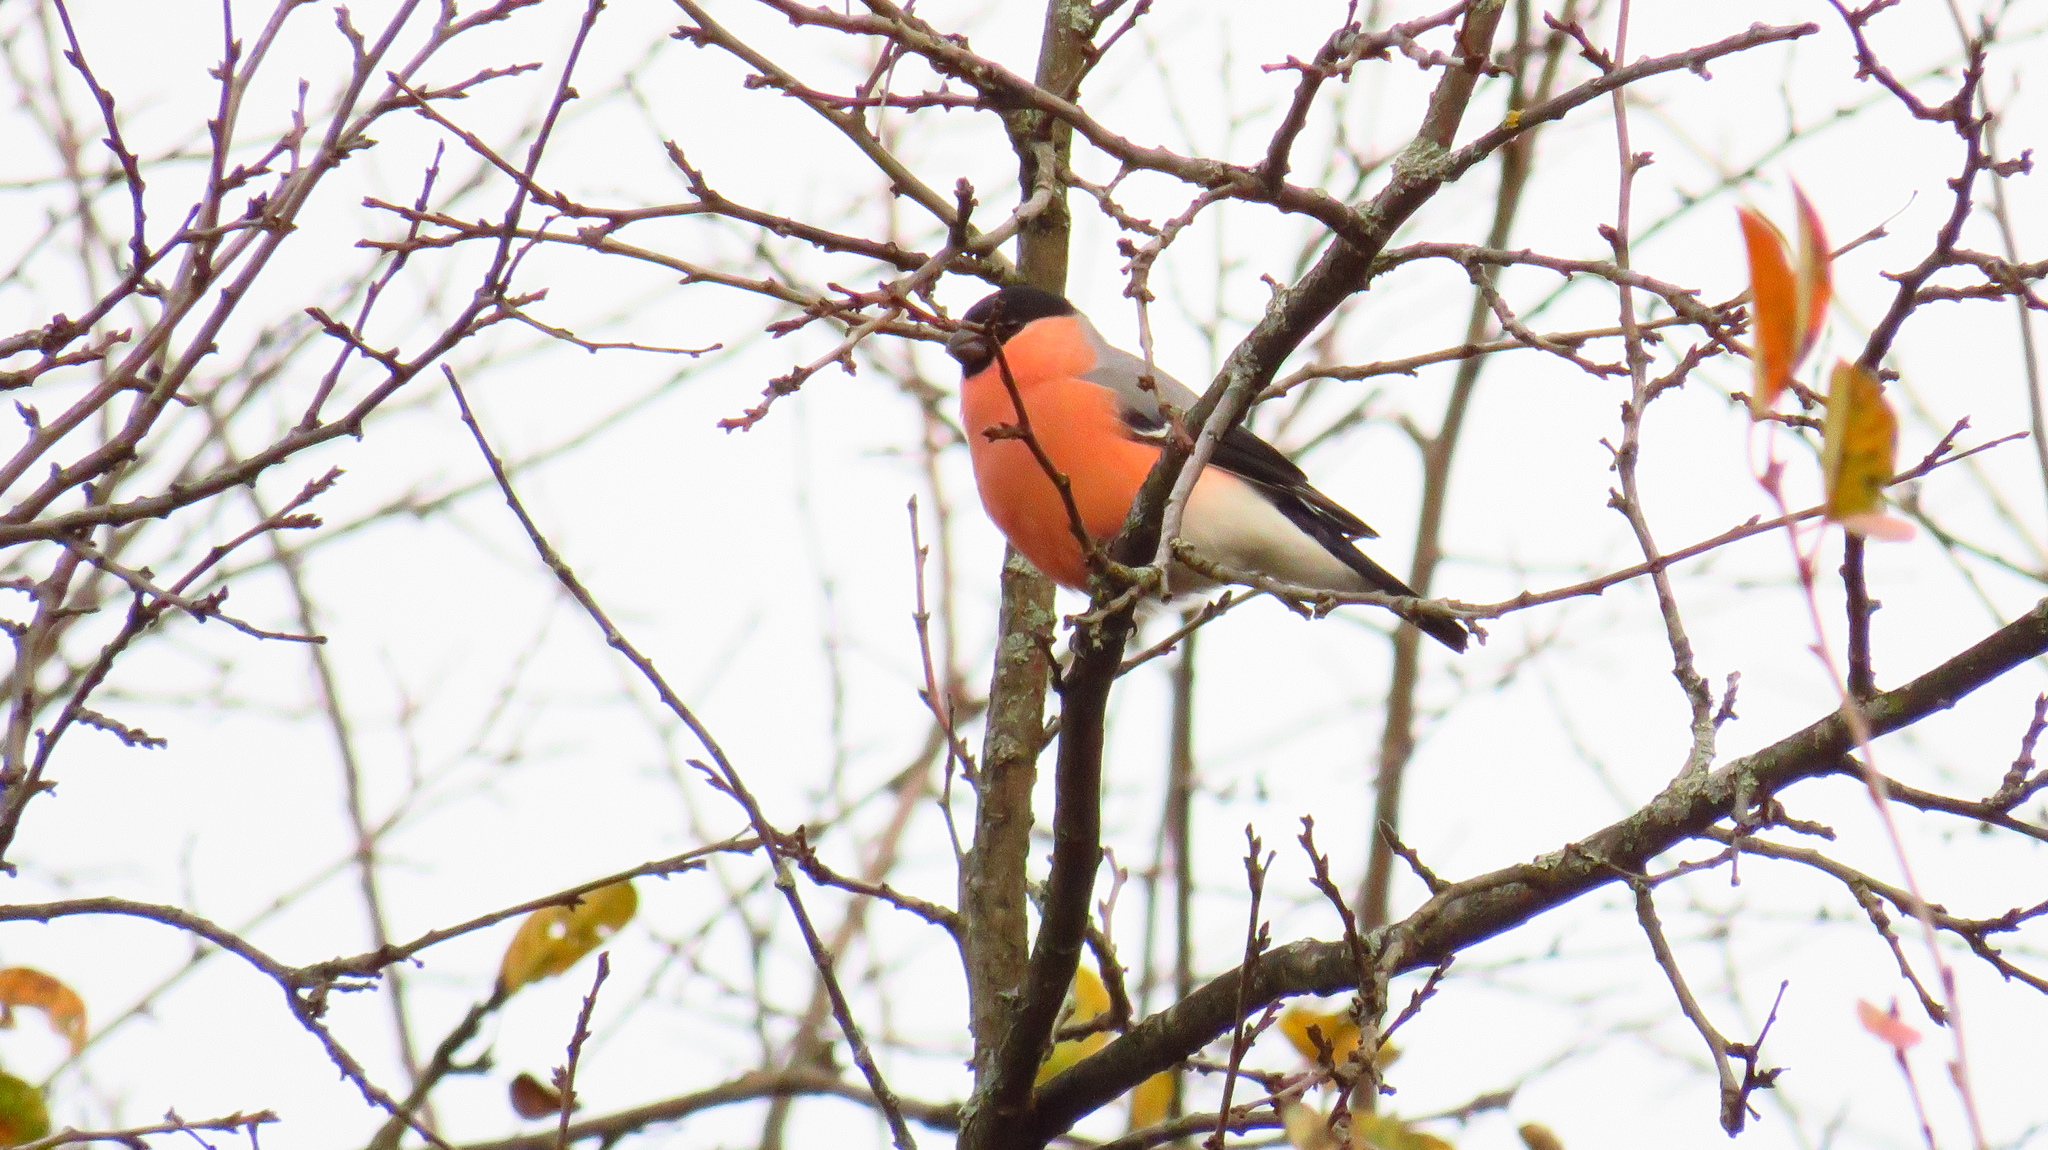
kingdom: Animalia
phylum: Chordata
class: Aves
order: Passeriformes
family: Fringillidae
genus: Pyrrhula
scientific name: Pyrrhula pyrrhula
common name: Eurasian bullfinch
